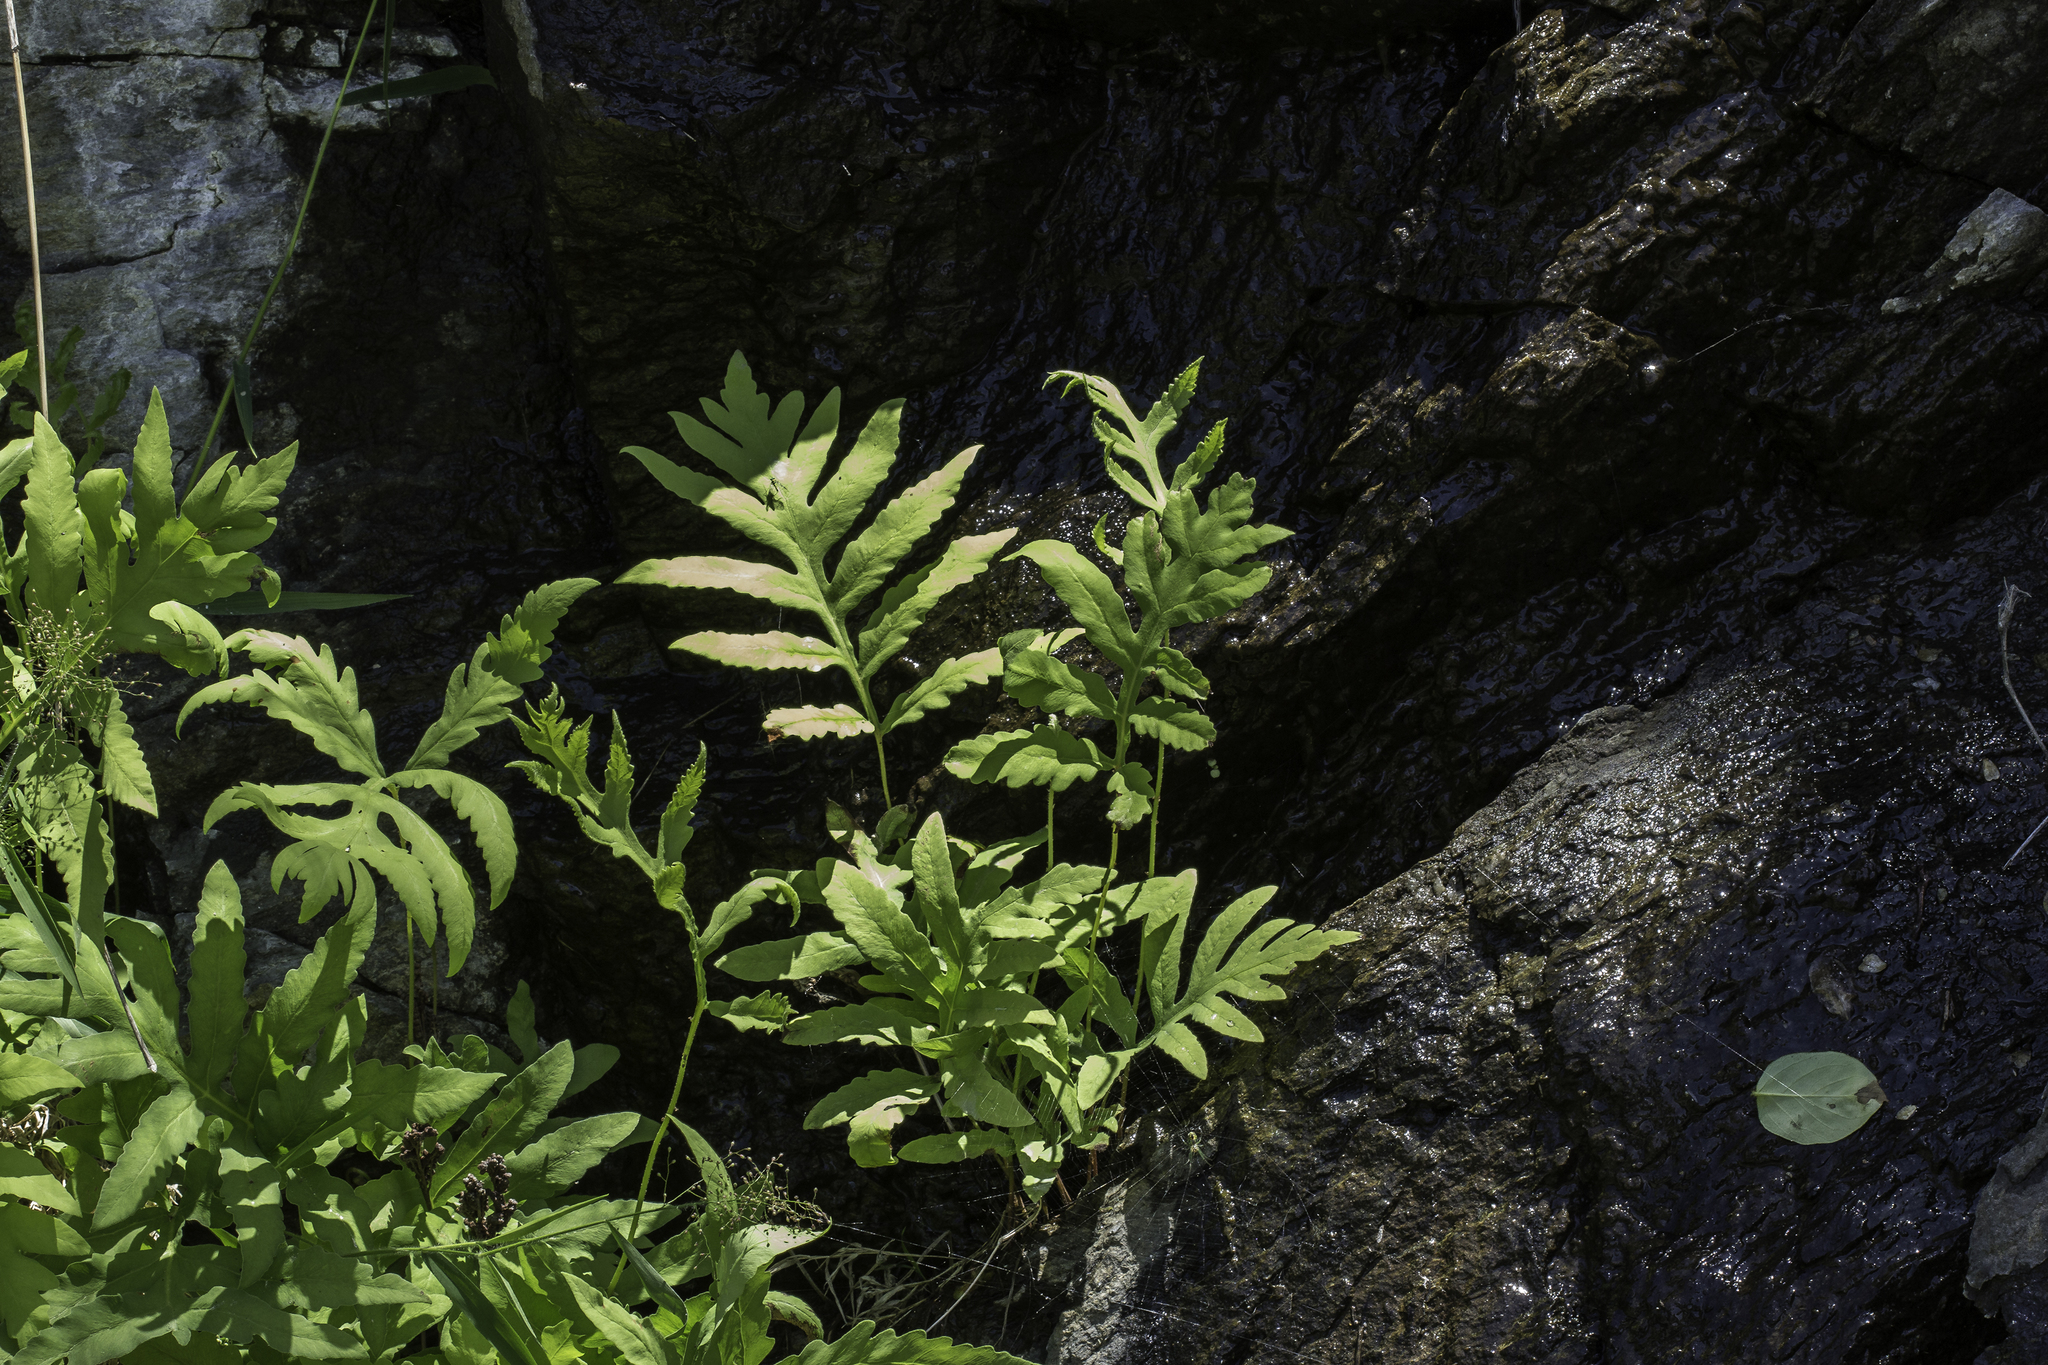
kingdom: Plantae
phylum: Tracheophyta
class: Polypodiopsida
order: Polypodiales
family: Onocleaceae
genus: Onoclea
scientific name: Onoclea sensibilis
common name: Sensitive fern
